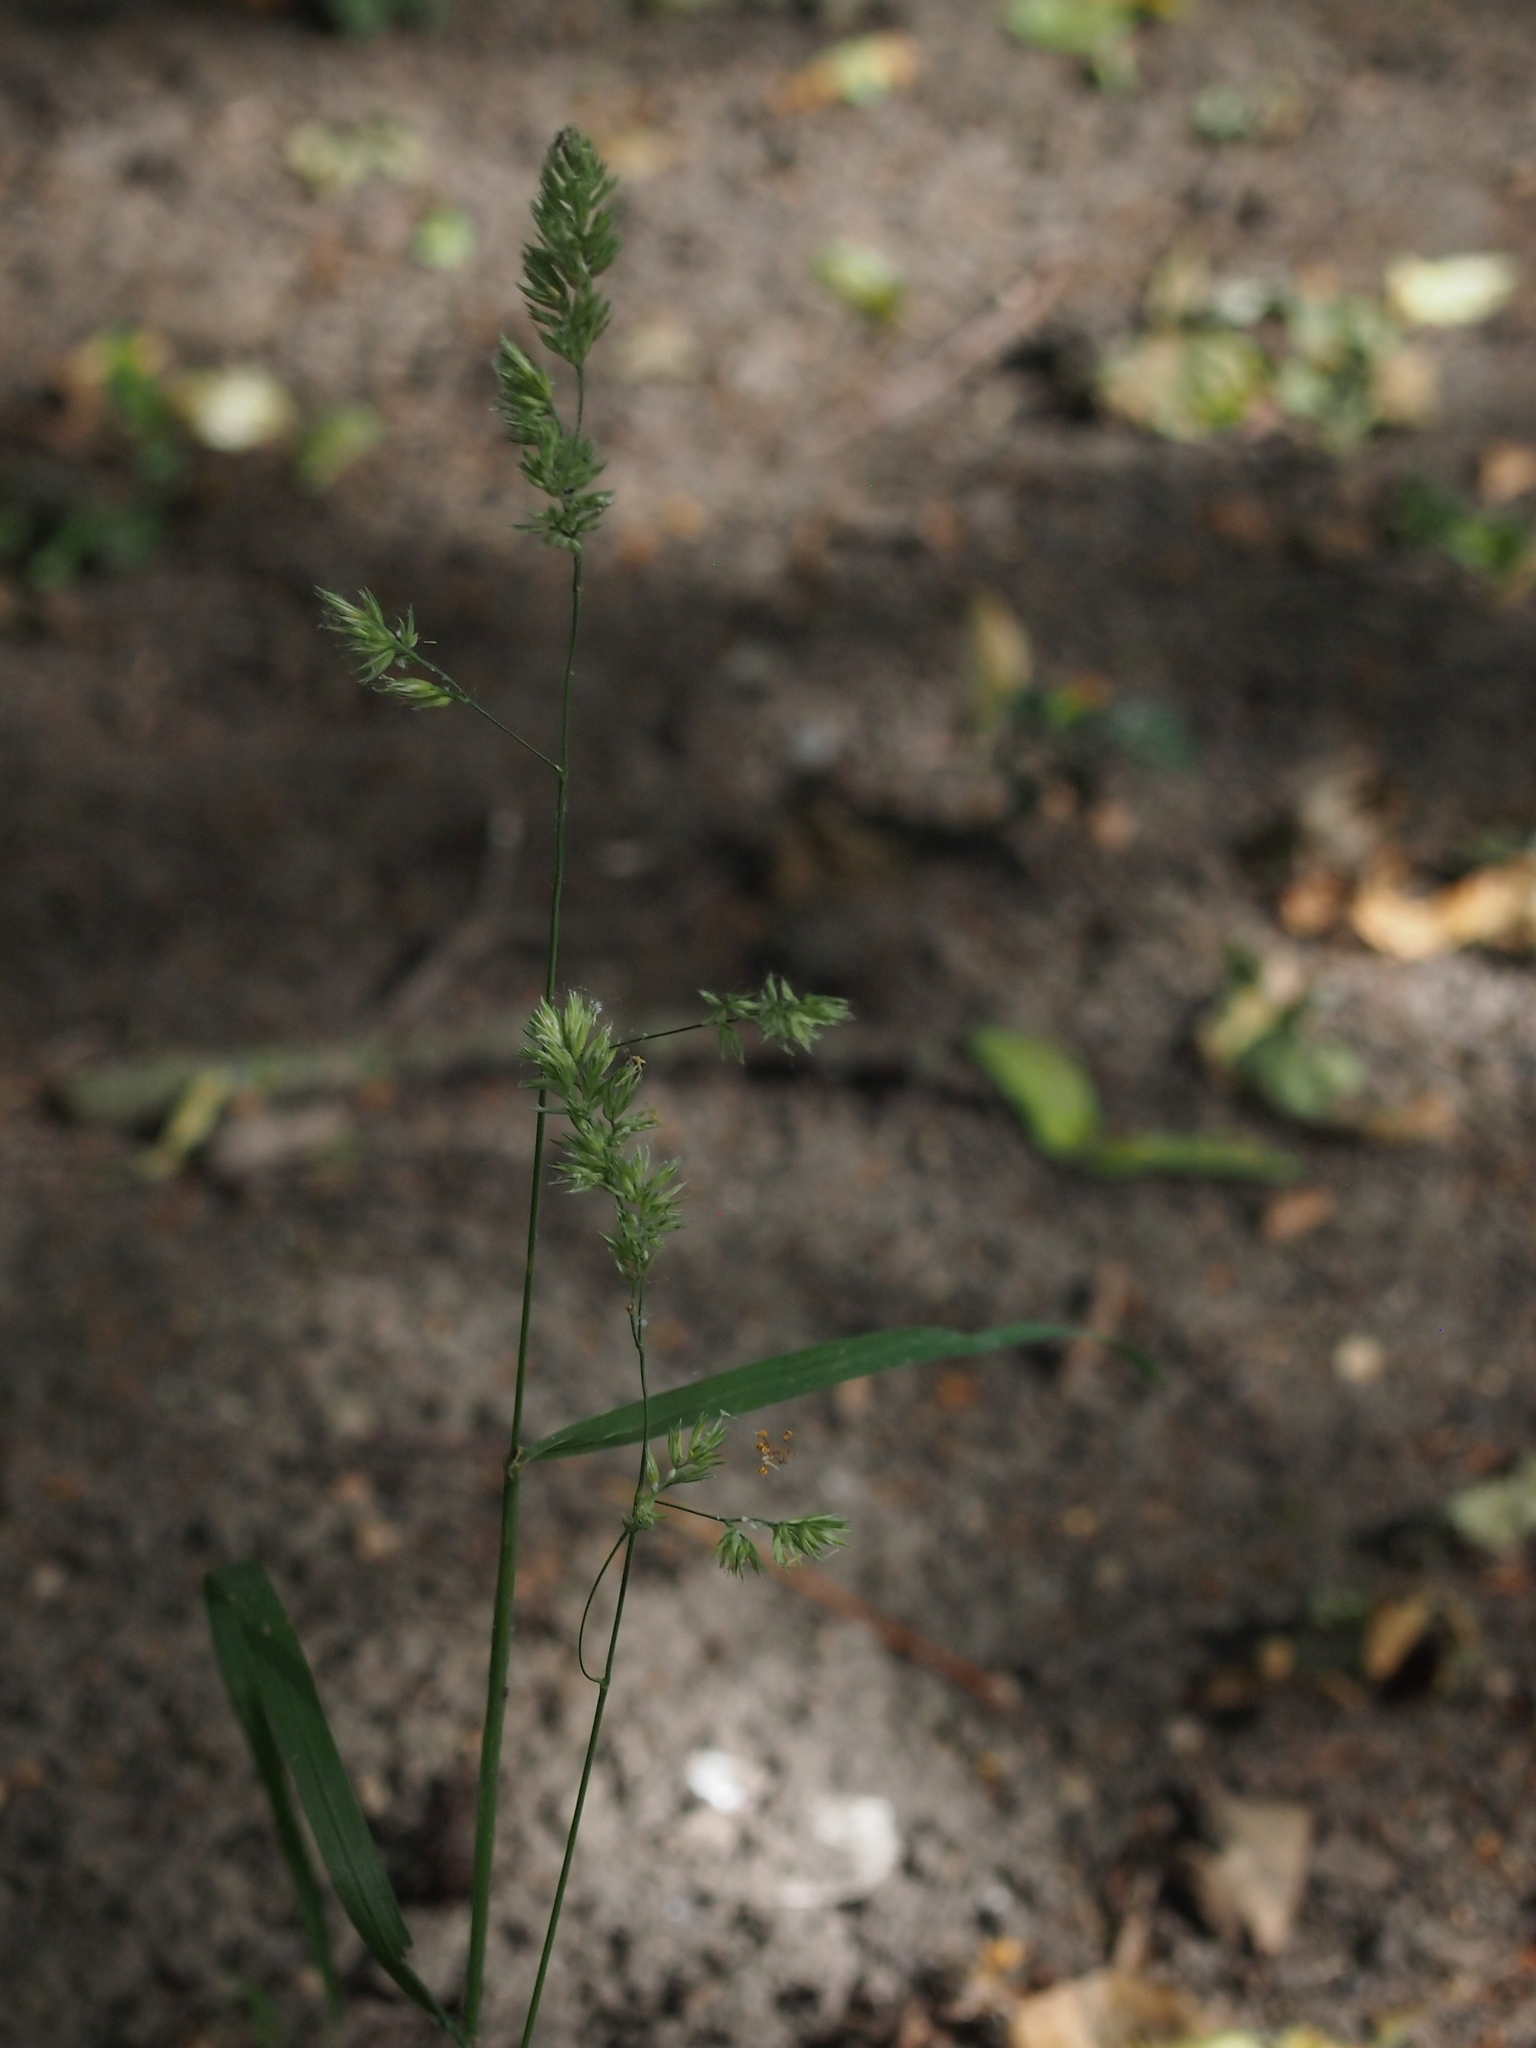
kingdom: Plantae
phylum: Tracheophyta
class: Liliopsida
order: Poales
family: Poaceae
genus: Dactylis
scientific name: Dactylis glomerata
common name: Orchardgrass
